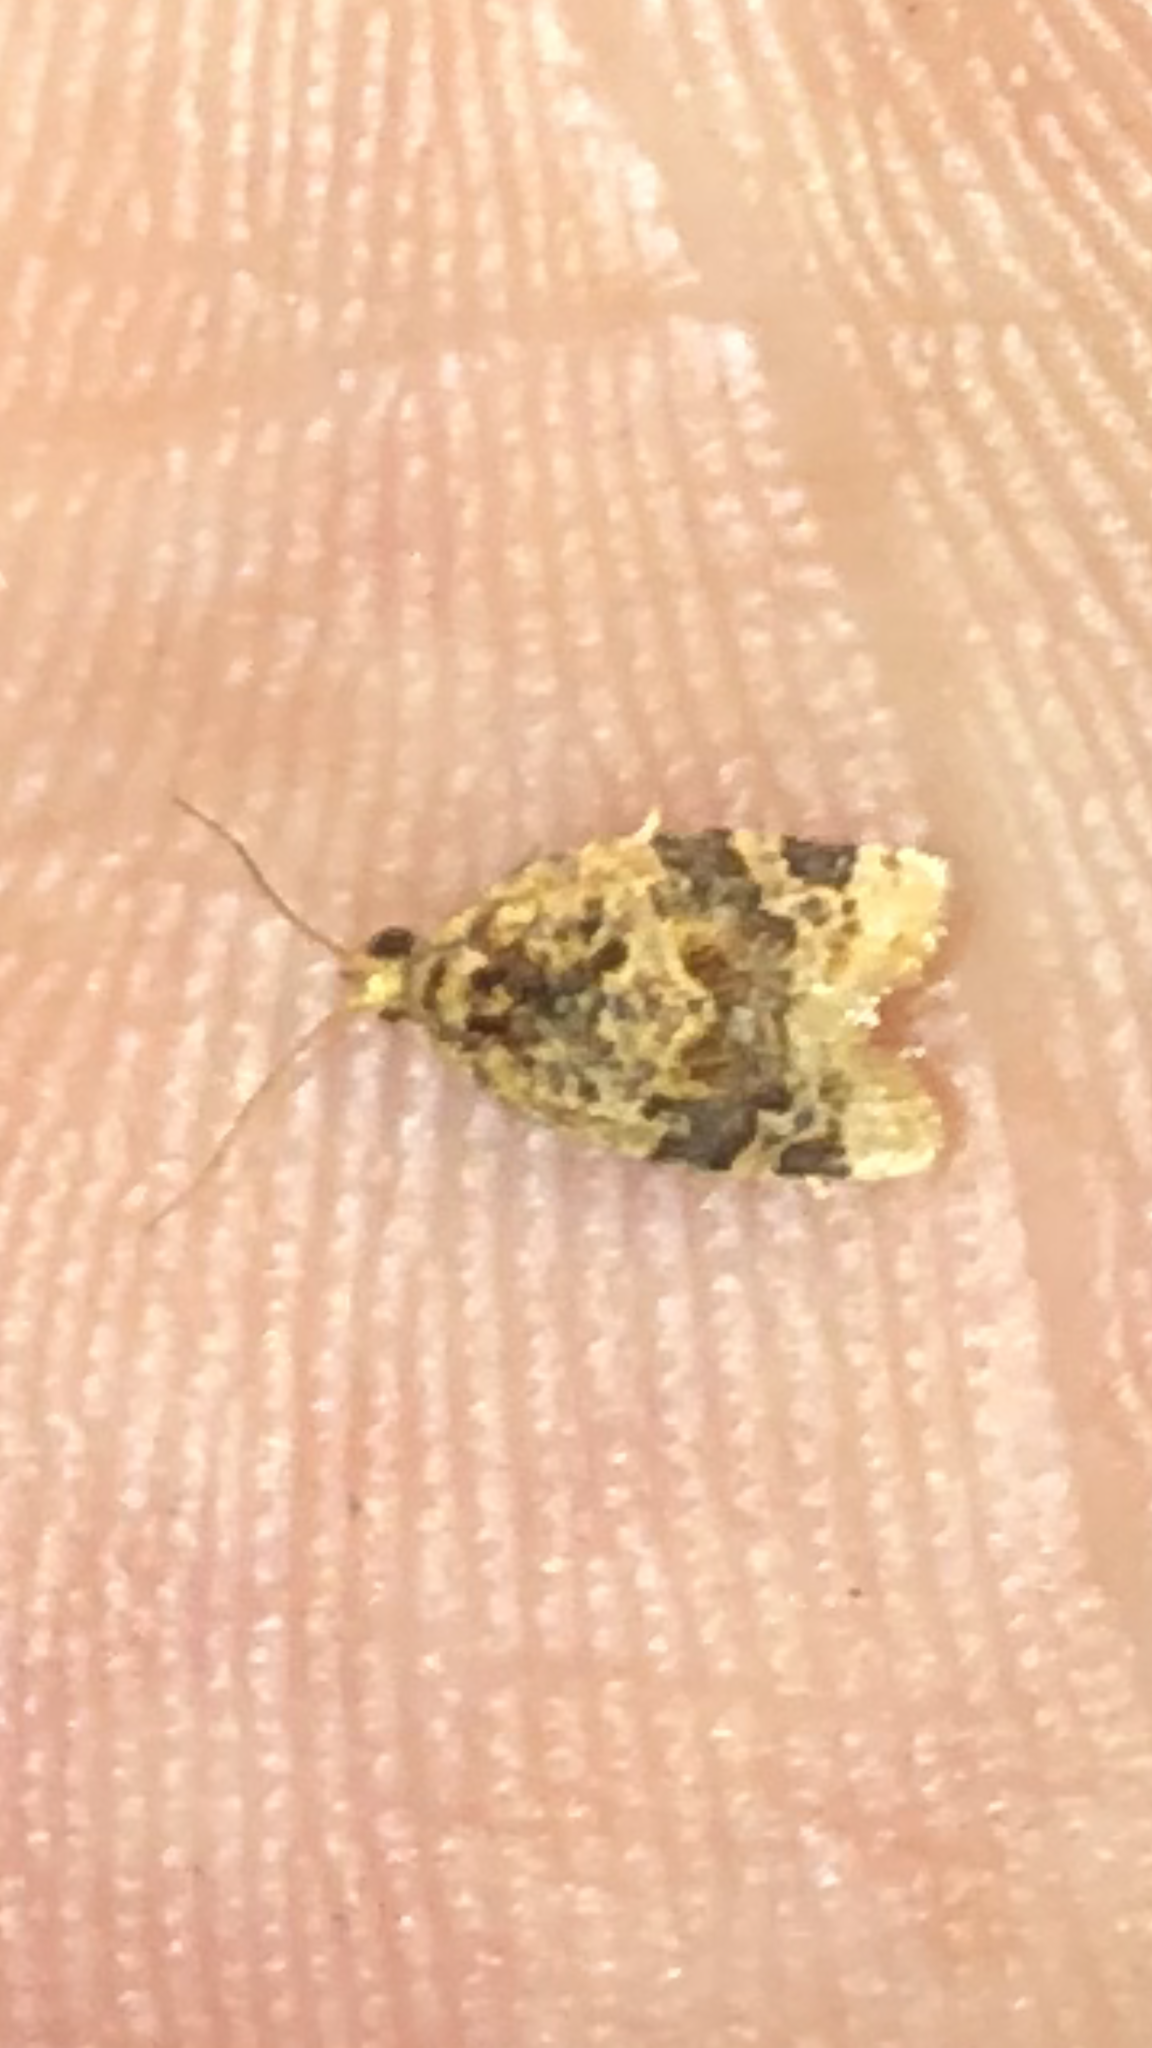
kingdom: Animalia
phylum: Arthropoda
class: Insecta
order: Lepidoptera
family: Tortricidae
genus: Argyrotaenia
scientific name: Argyrotaenia velutinana
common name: Red-banded leafroller moth
